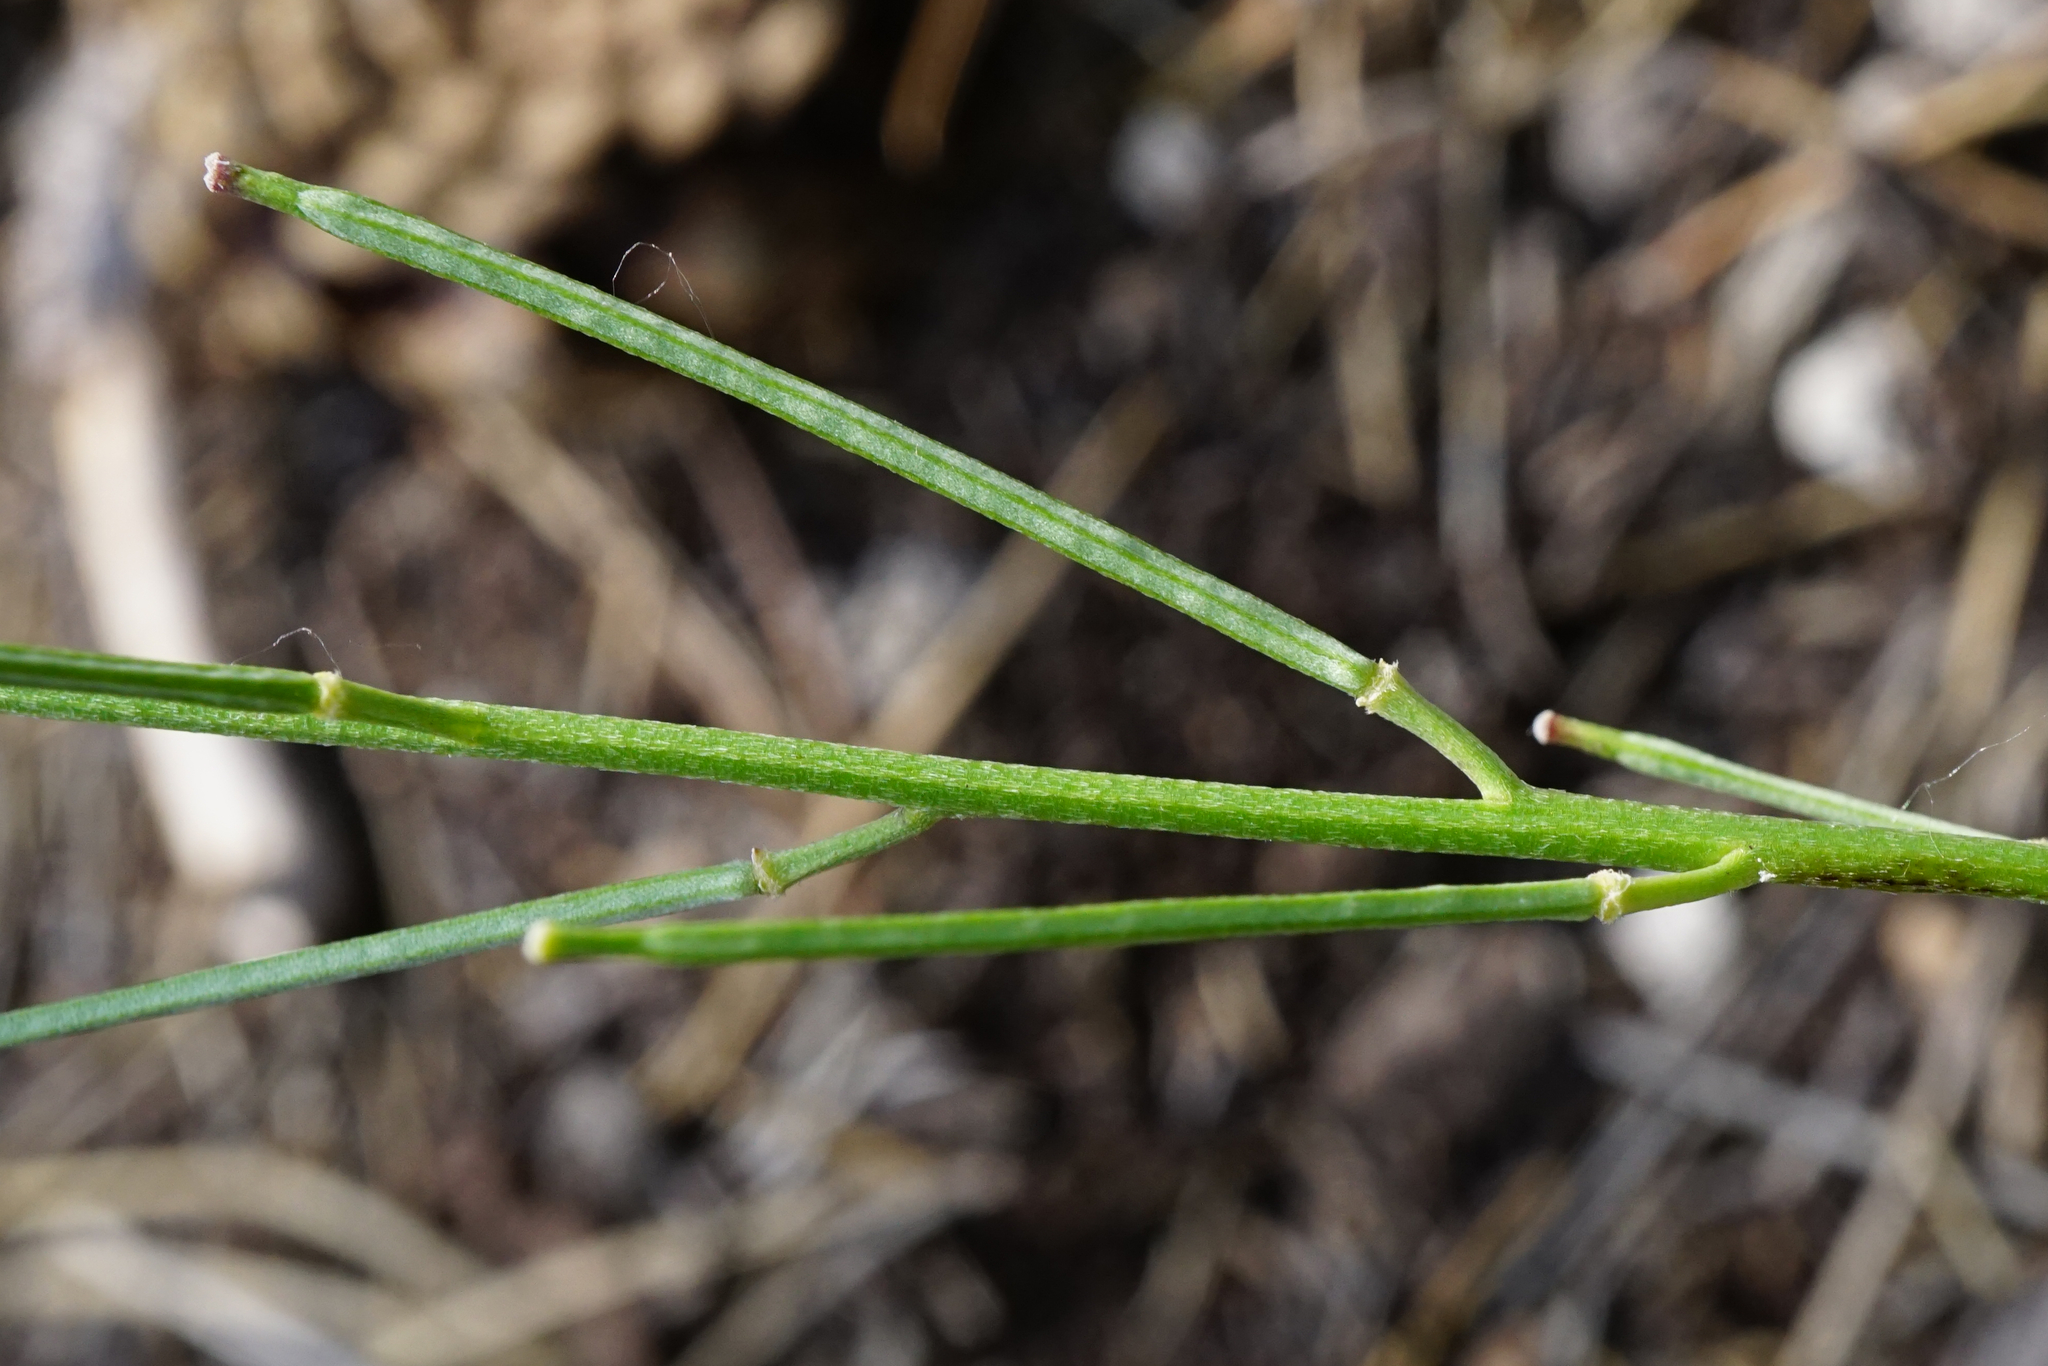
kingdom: Plantae
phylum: Tracheophyta
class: Magnoliopsida
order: Brassicales
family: Brassicaceae
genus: Erysimum
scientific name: Erysimum andrzejowskianum
